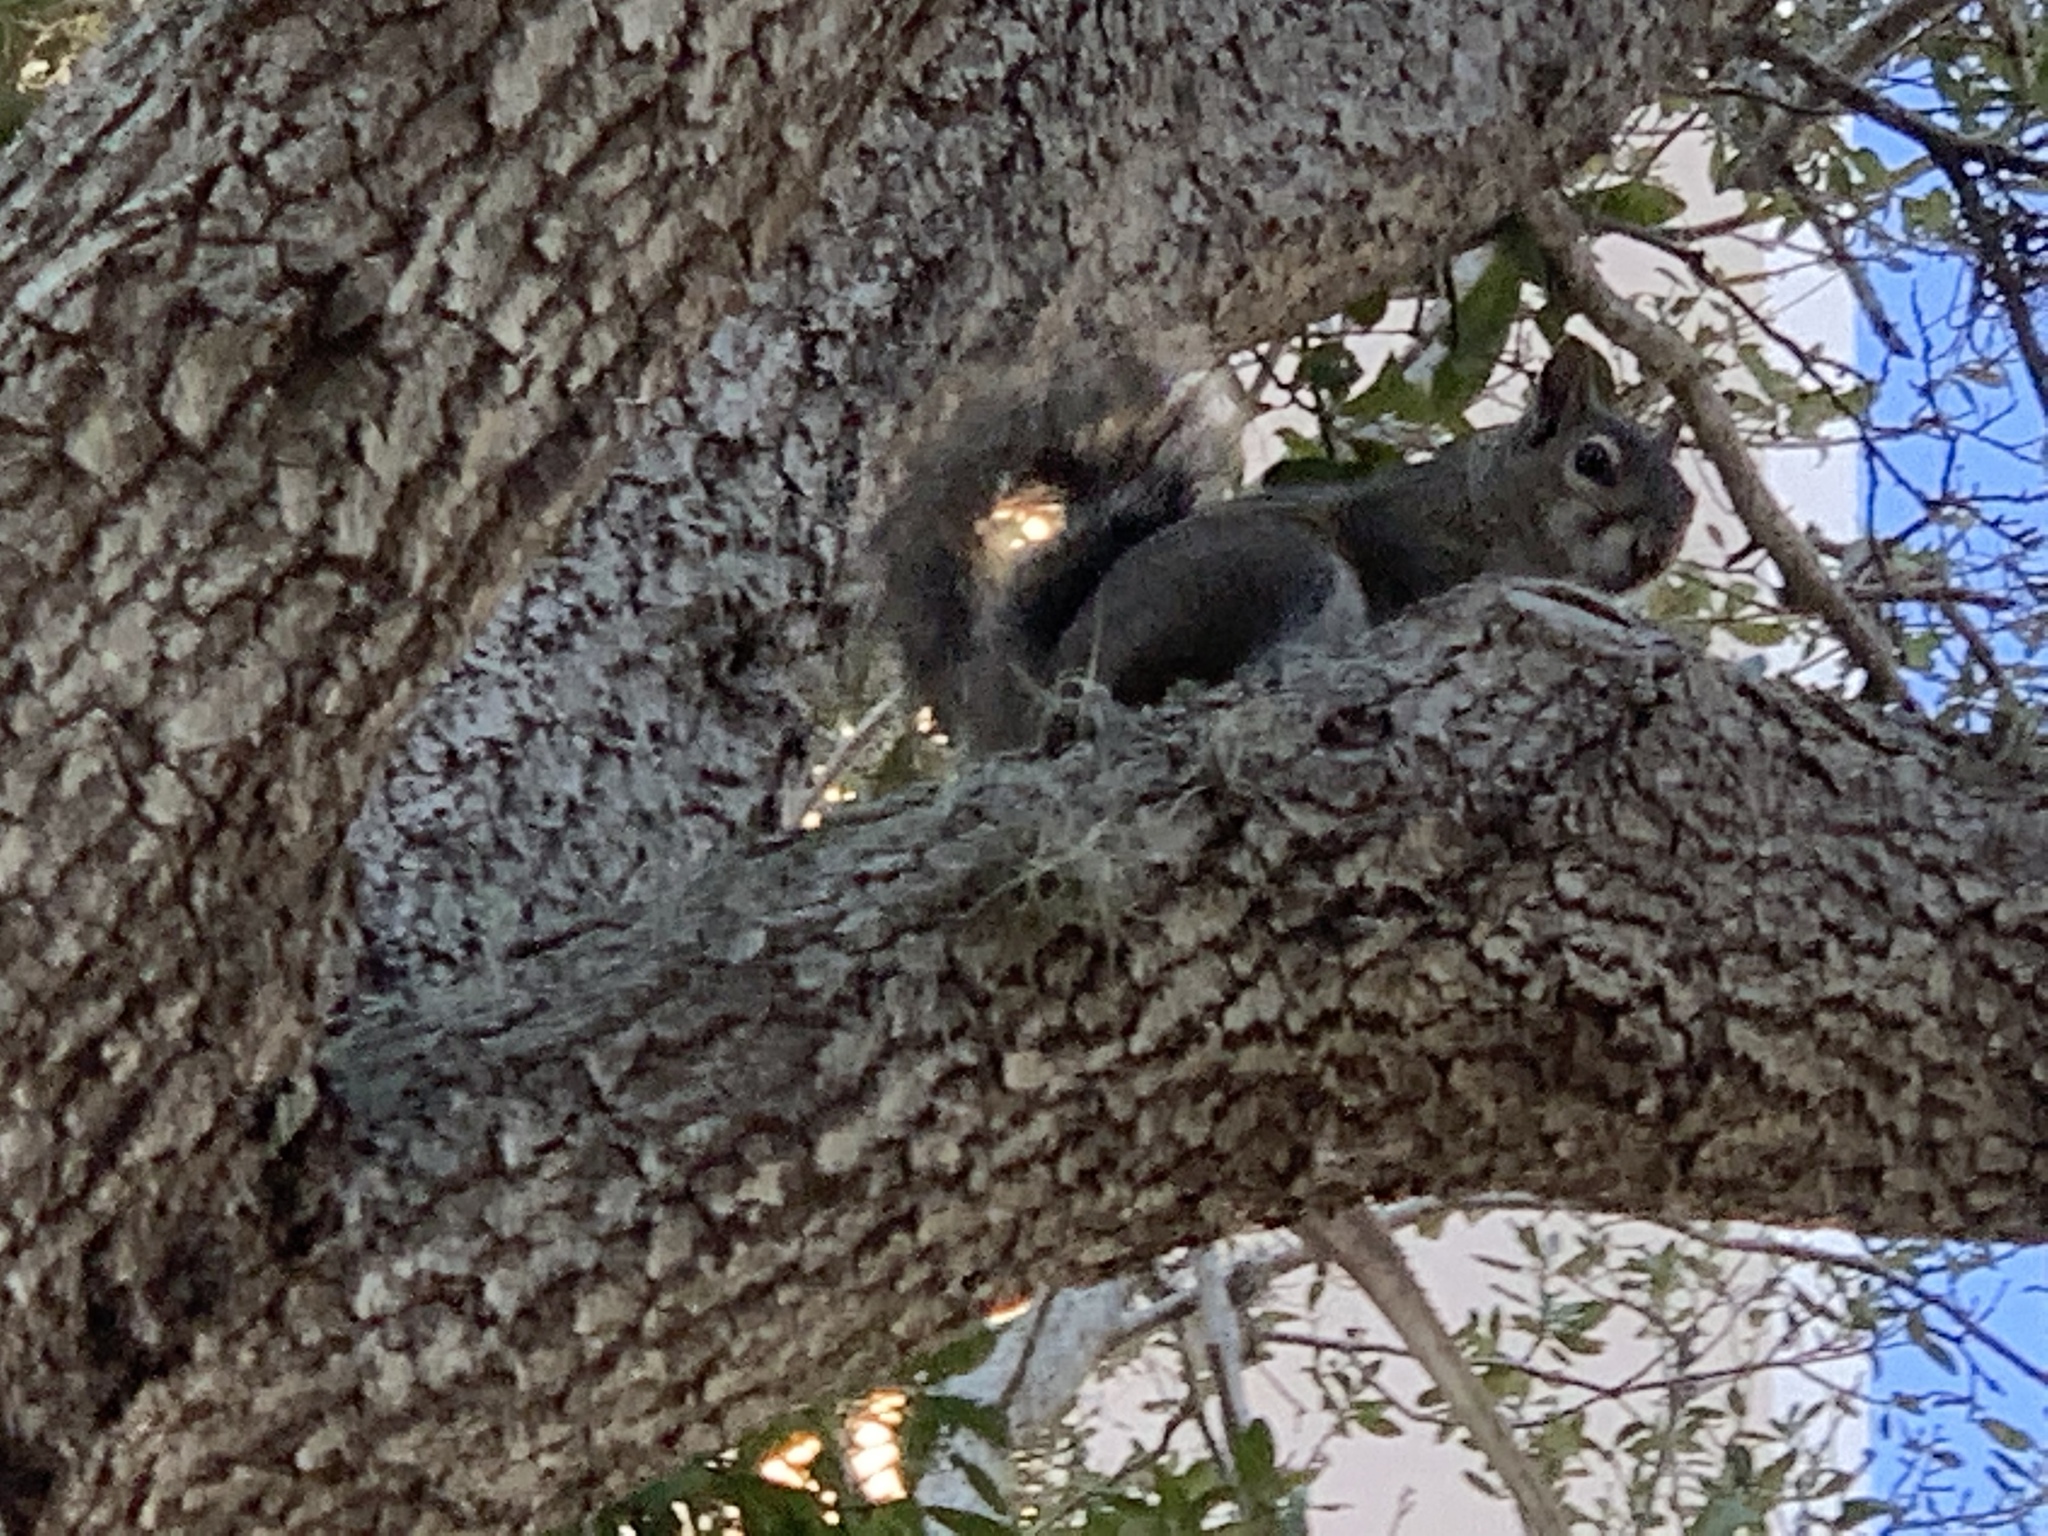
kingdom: Animalia
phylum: Chordata
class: Mammalia
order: Rodentia
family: Sciuridae
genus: Sciurus
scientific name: Sciurus carolinensis
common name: Eastern gray squirrel
